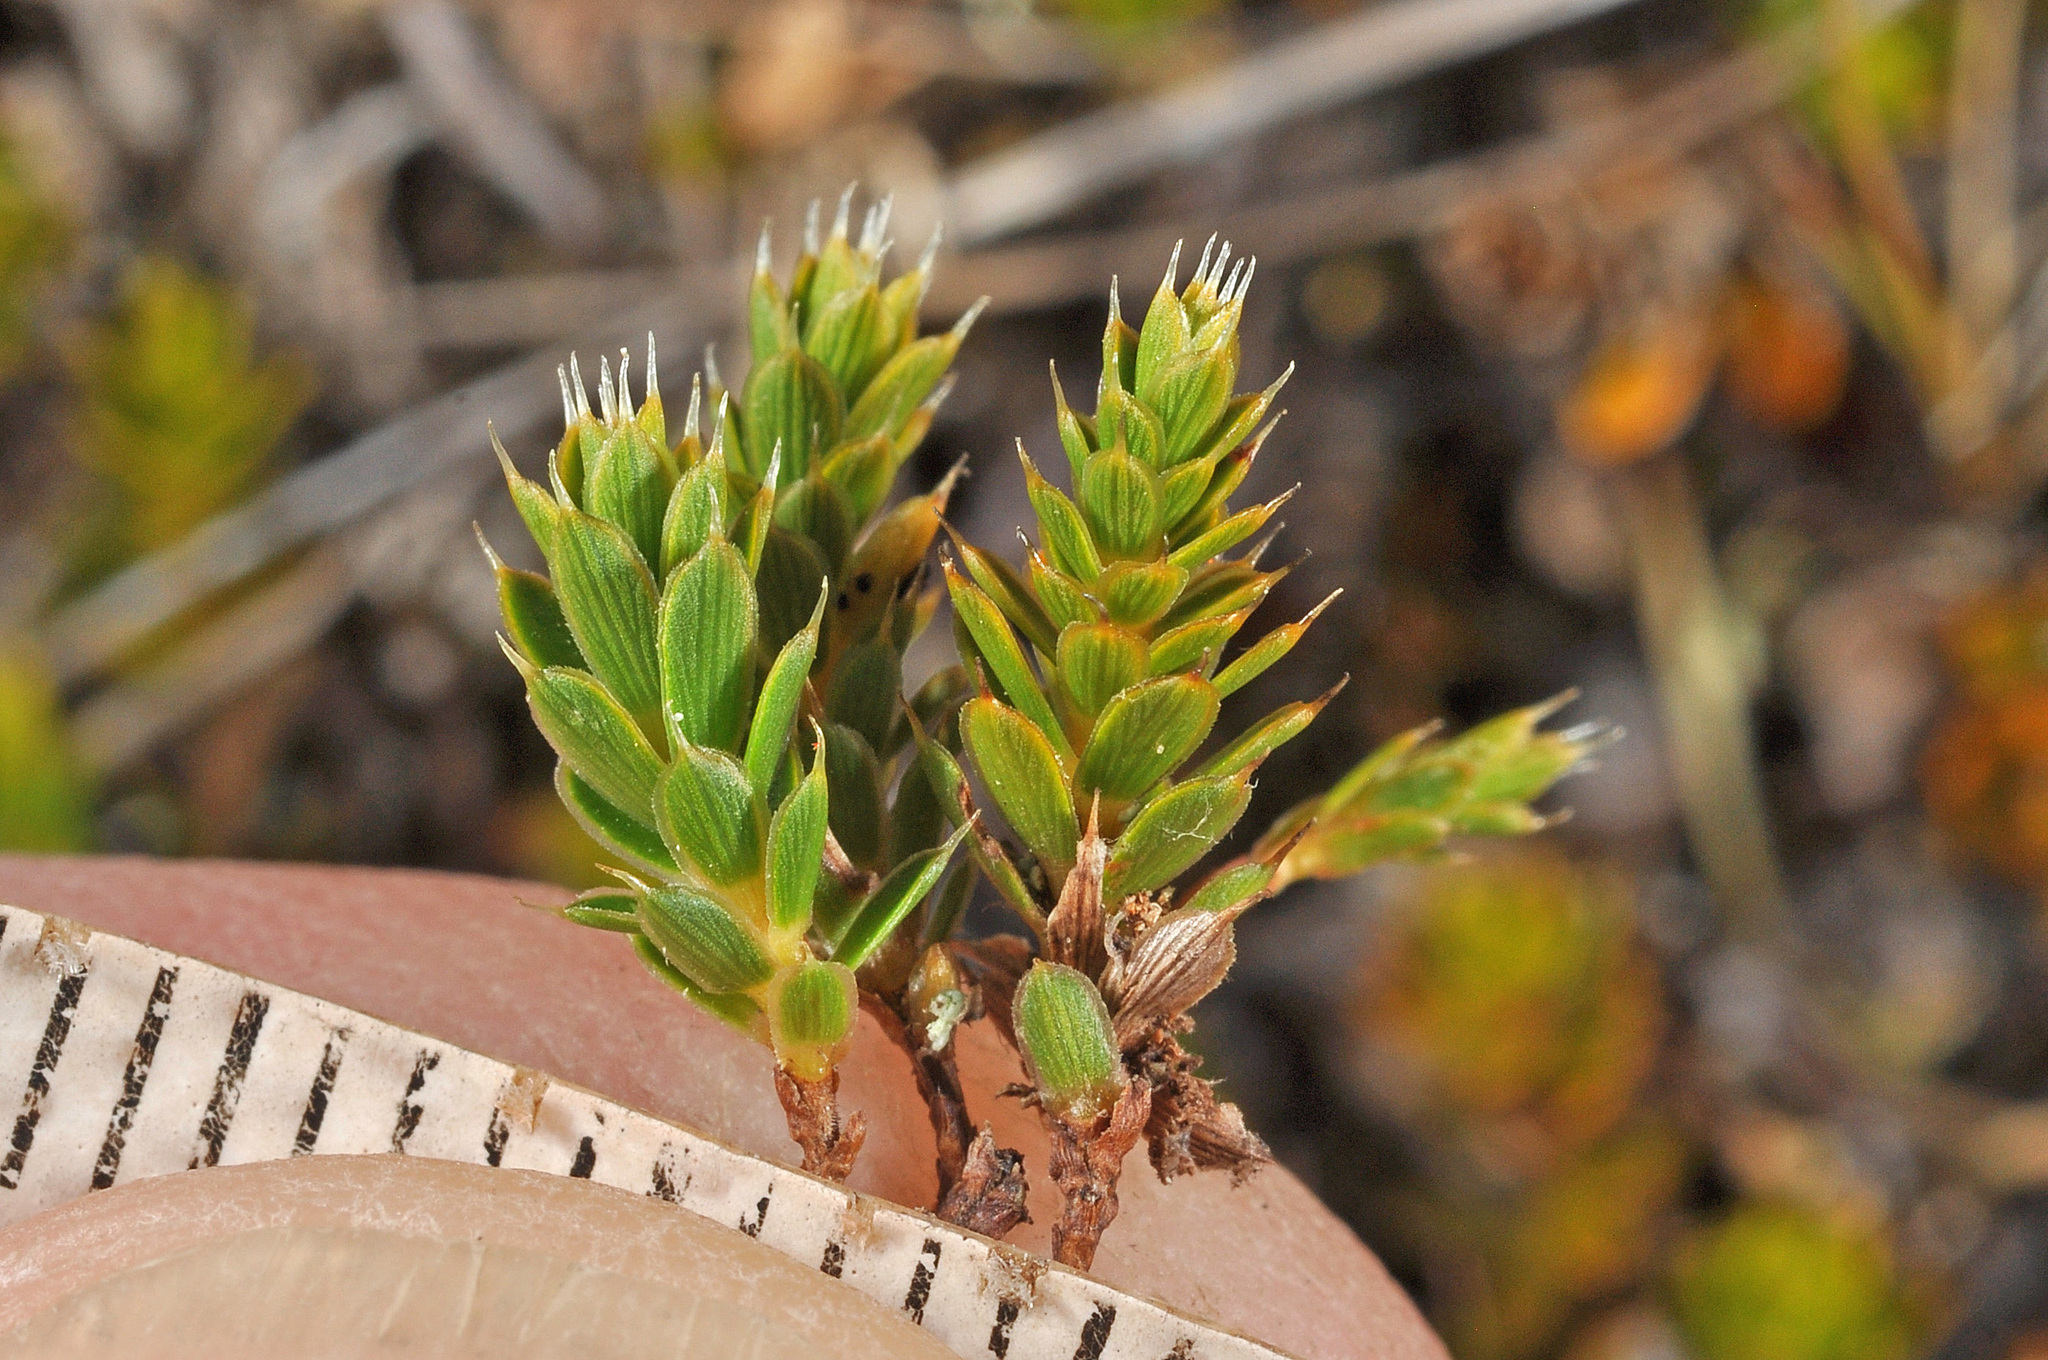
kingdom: Plantae
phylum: Tracheophyta
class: Magnoliopsida
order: Ericales
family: Ericaceae
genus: Styphelia
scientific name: Styphelia nesophila
